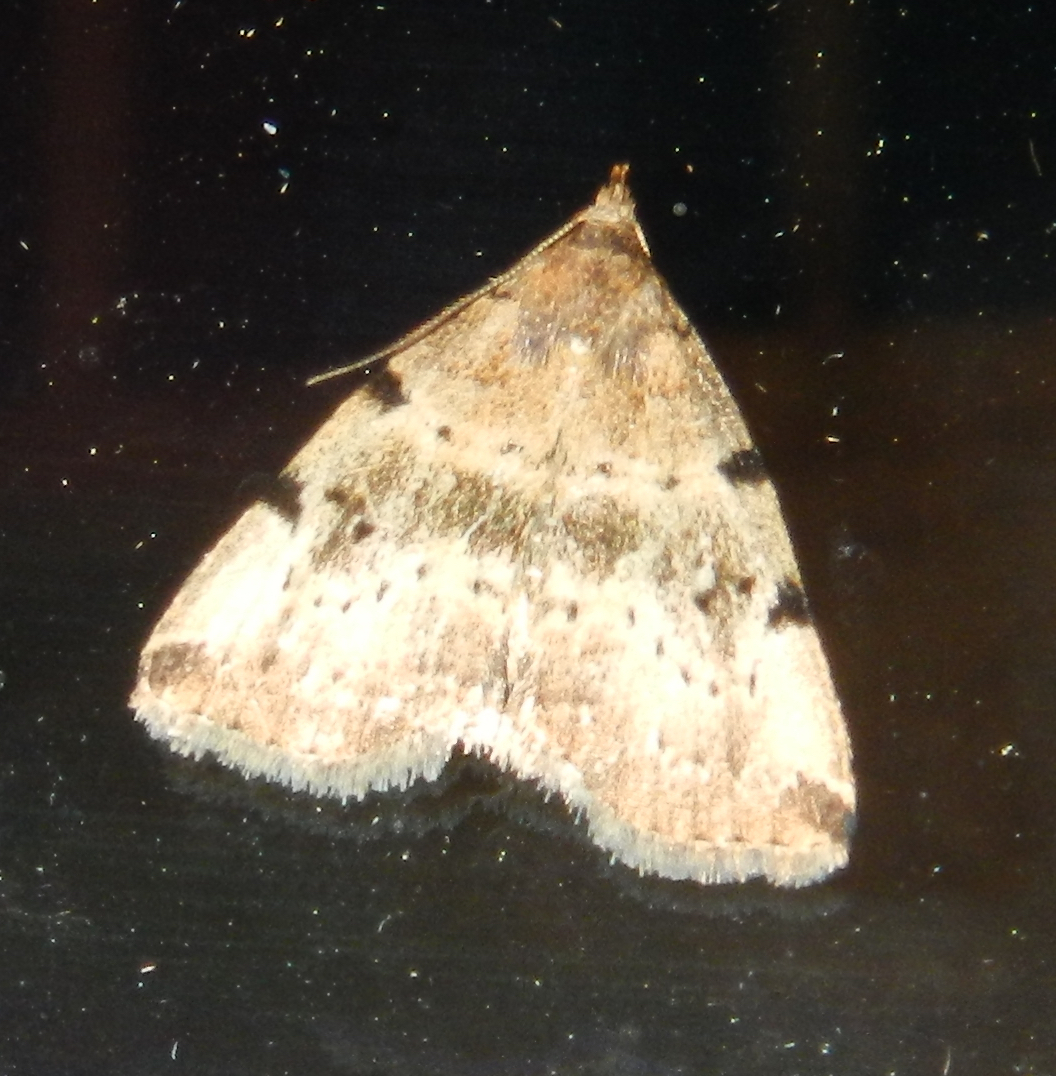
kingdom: Animalia
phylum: Arthropoda
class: Insecta
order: Lepidoptera
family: Erebidae
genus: Zanclognatha
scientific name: Zanclognatha lituralis
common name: Lettered fan-foot
